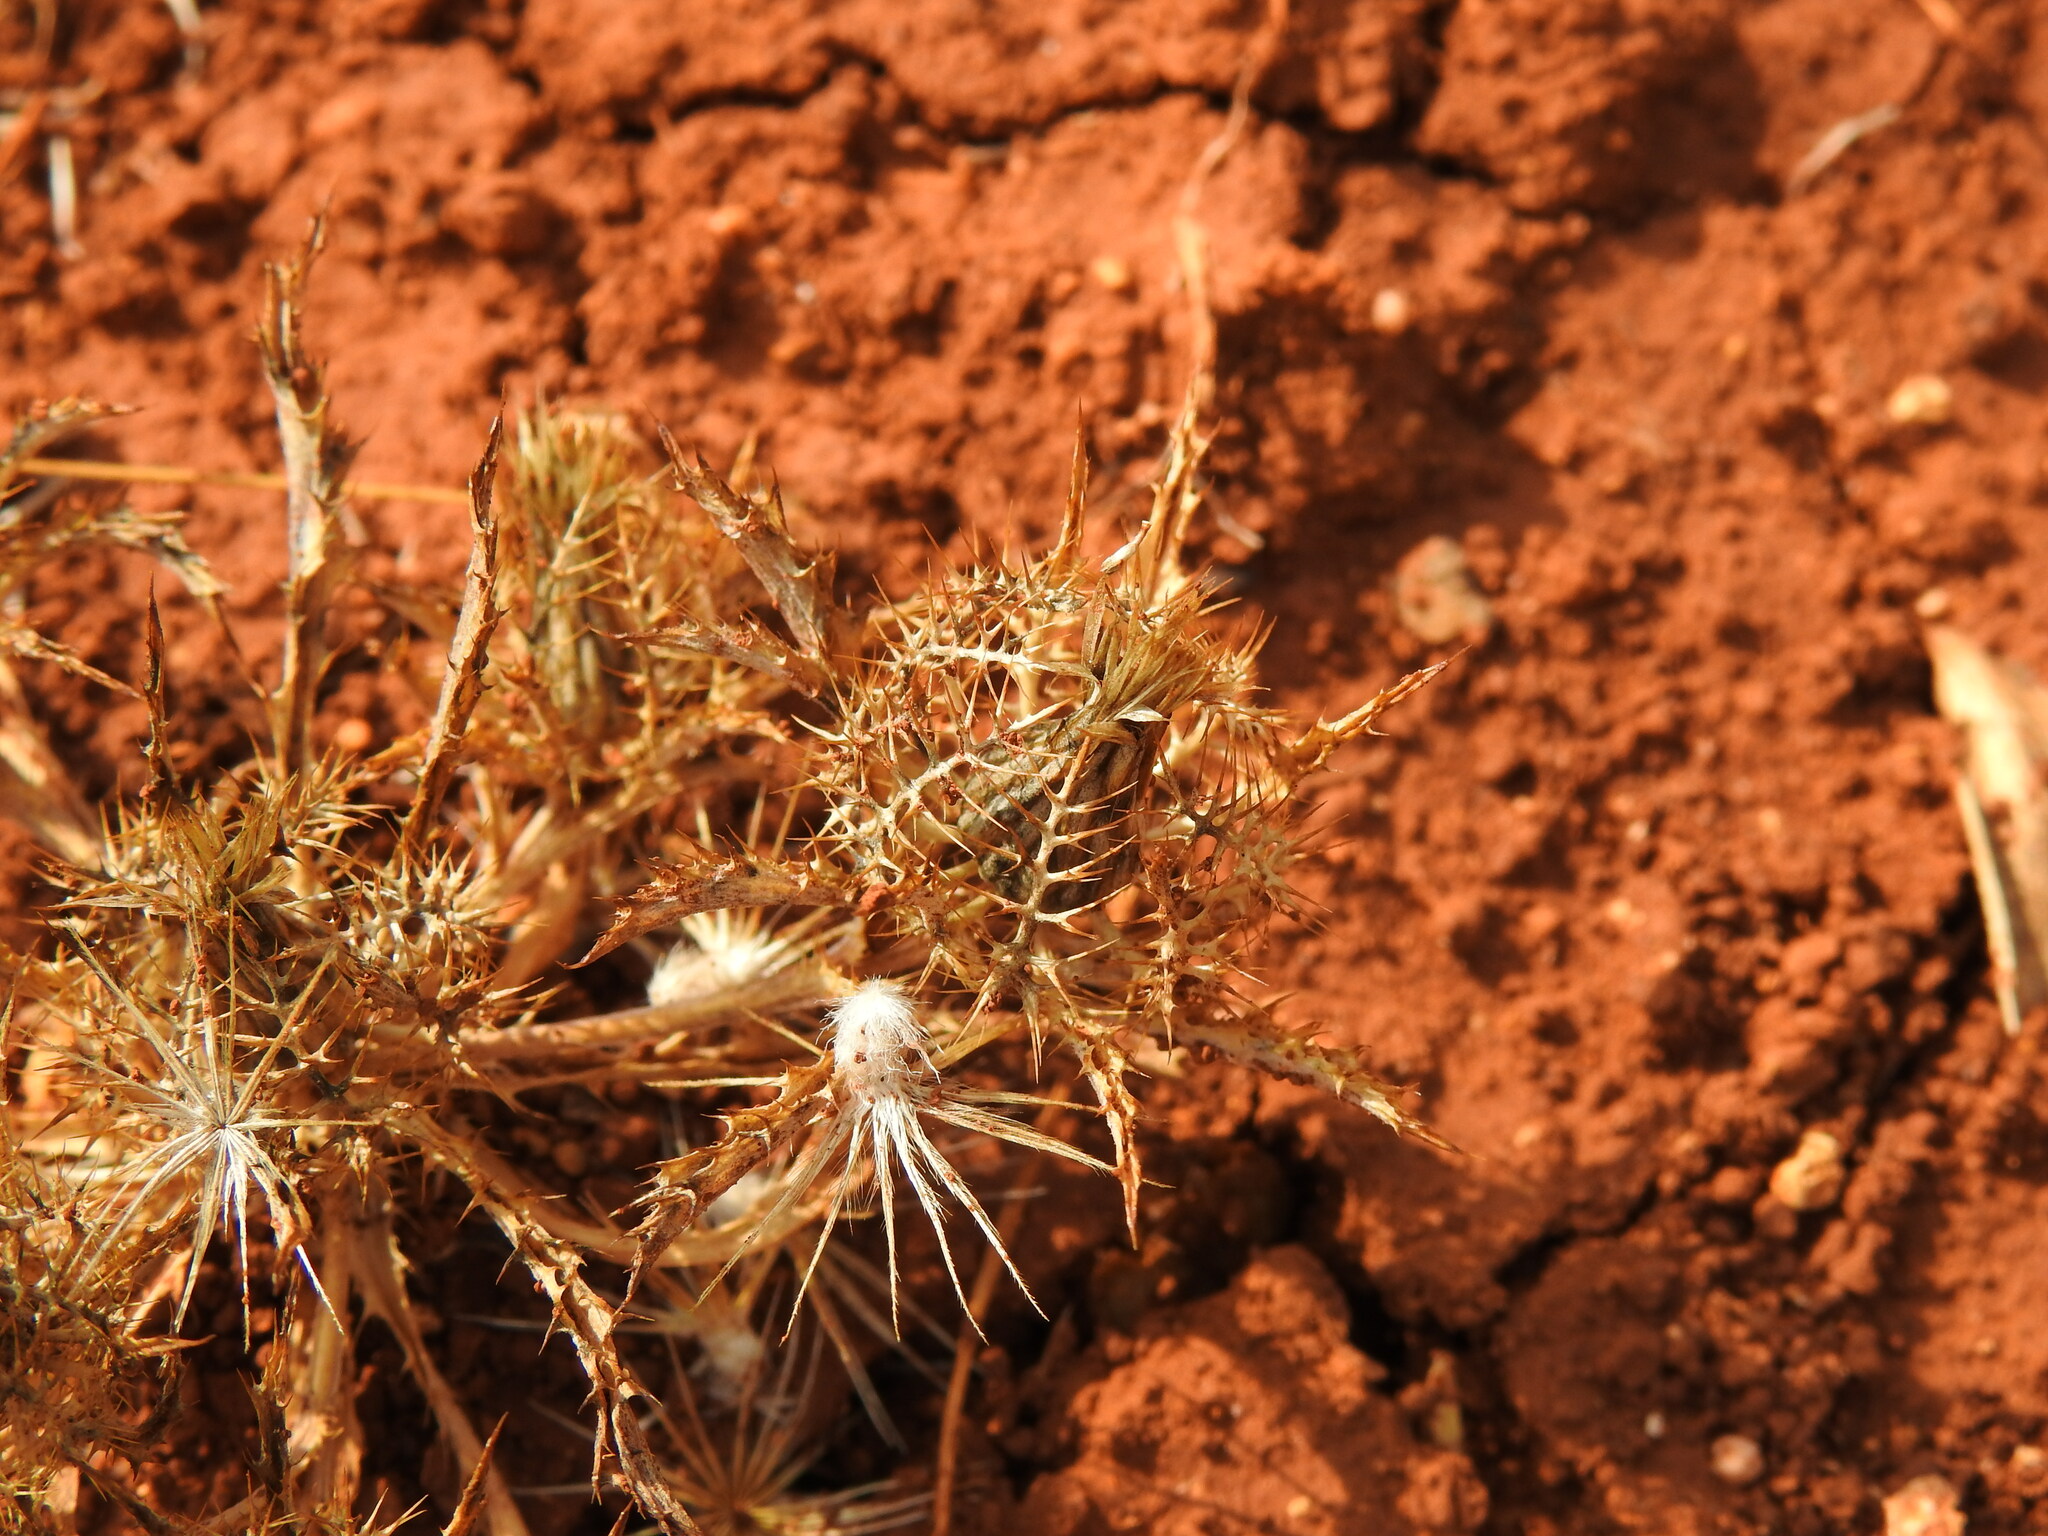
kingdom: Plantae
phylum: Tracheophyta
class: Magnoliopsida
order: Asterales
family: Asteraceae
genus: Atractylis
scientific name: Atractylis cancellata
